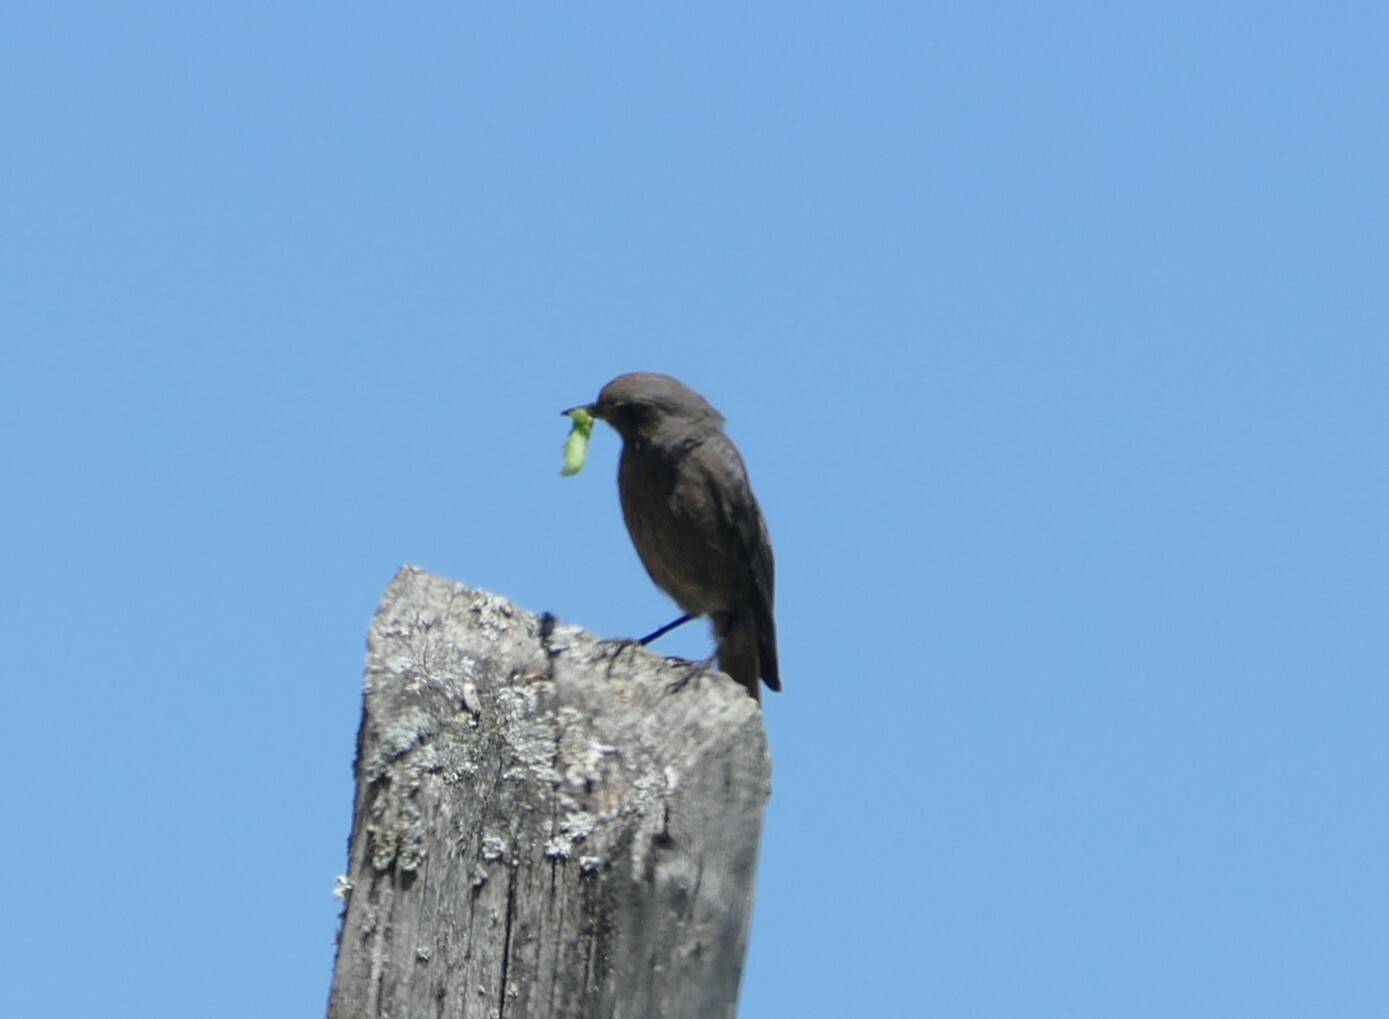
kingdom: Animalia
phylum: Chordata
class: Aves
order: Passeriformes
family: Muscicapidae
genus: Phoenicurus
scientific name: Phoenicurus ochruros
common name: Black redstart
